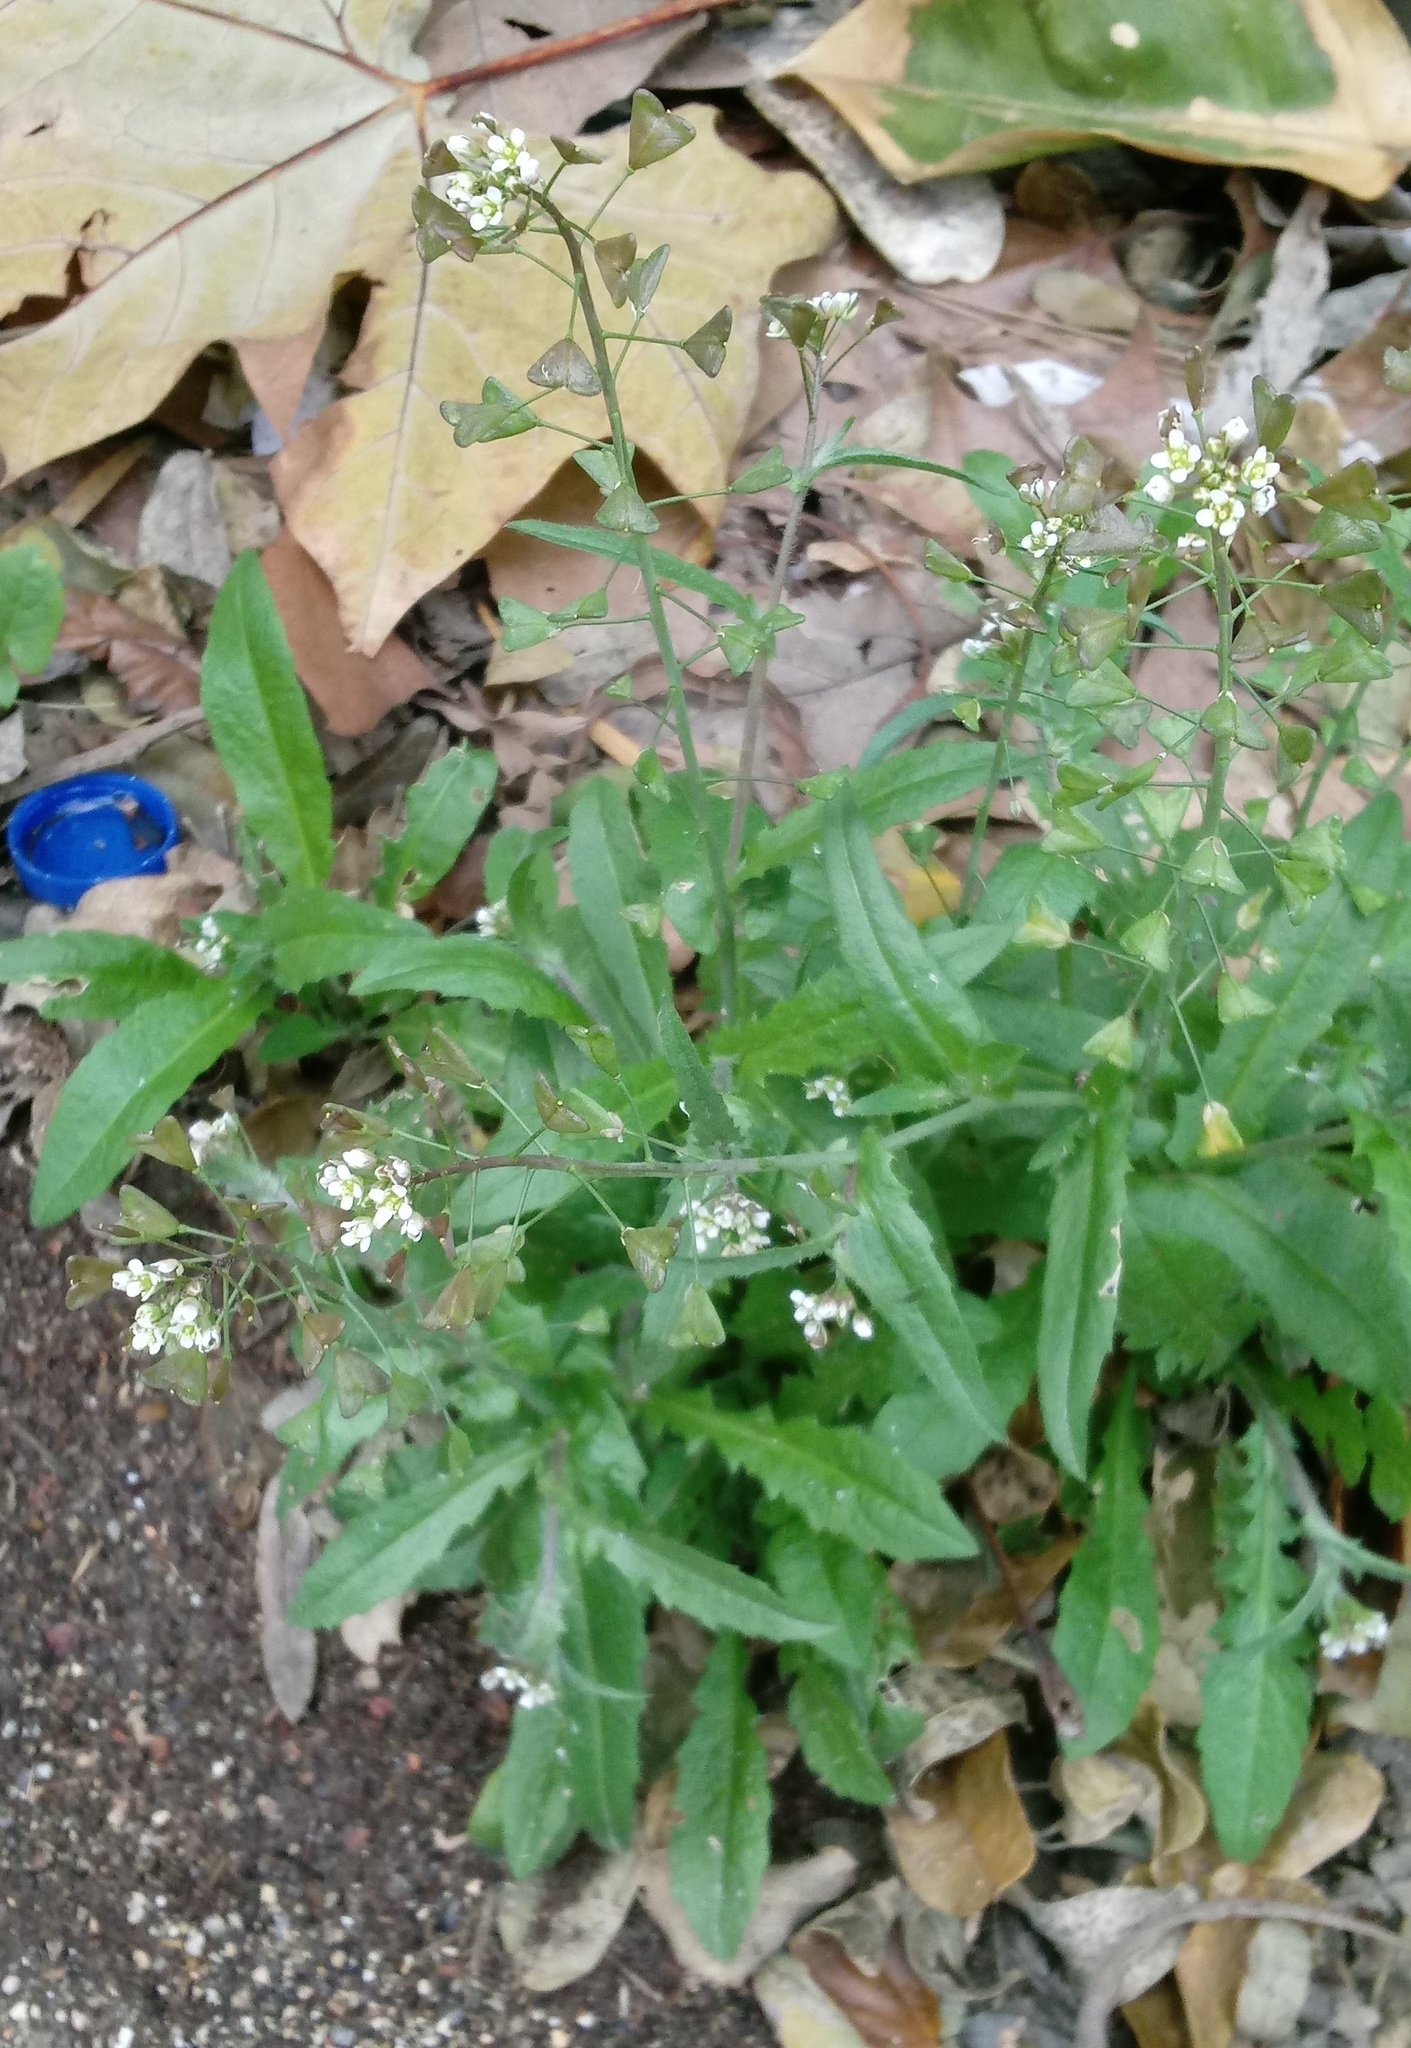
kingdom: Plantae
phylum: Tracheophyta
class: Magnoliopsida
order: Brassicales
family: Brassicaceae
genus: Capsella
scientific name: Capsella bursa-pastoris
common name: Shepherd's purse
